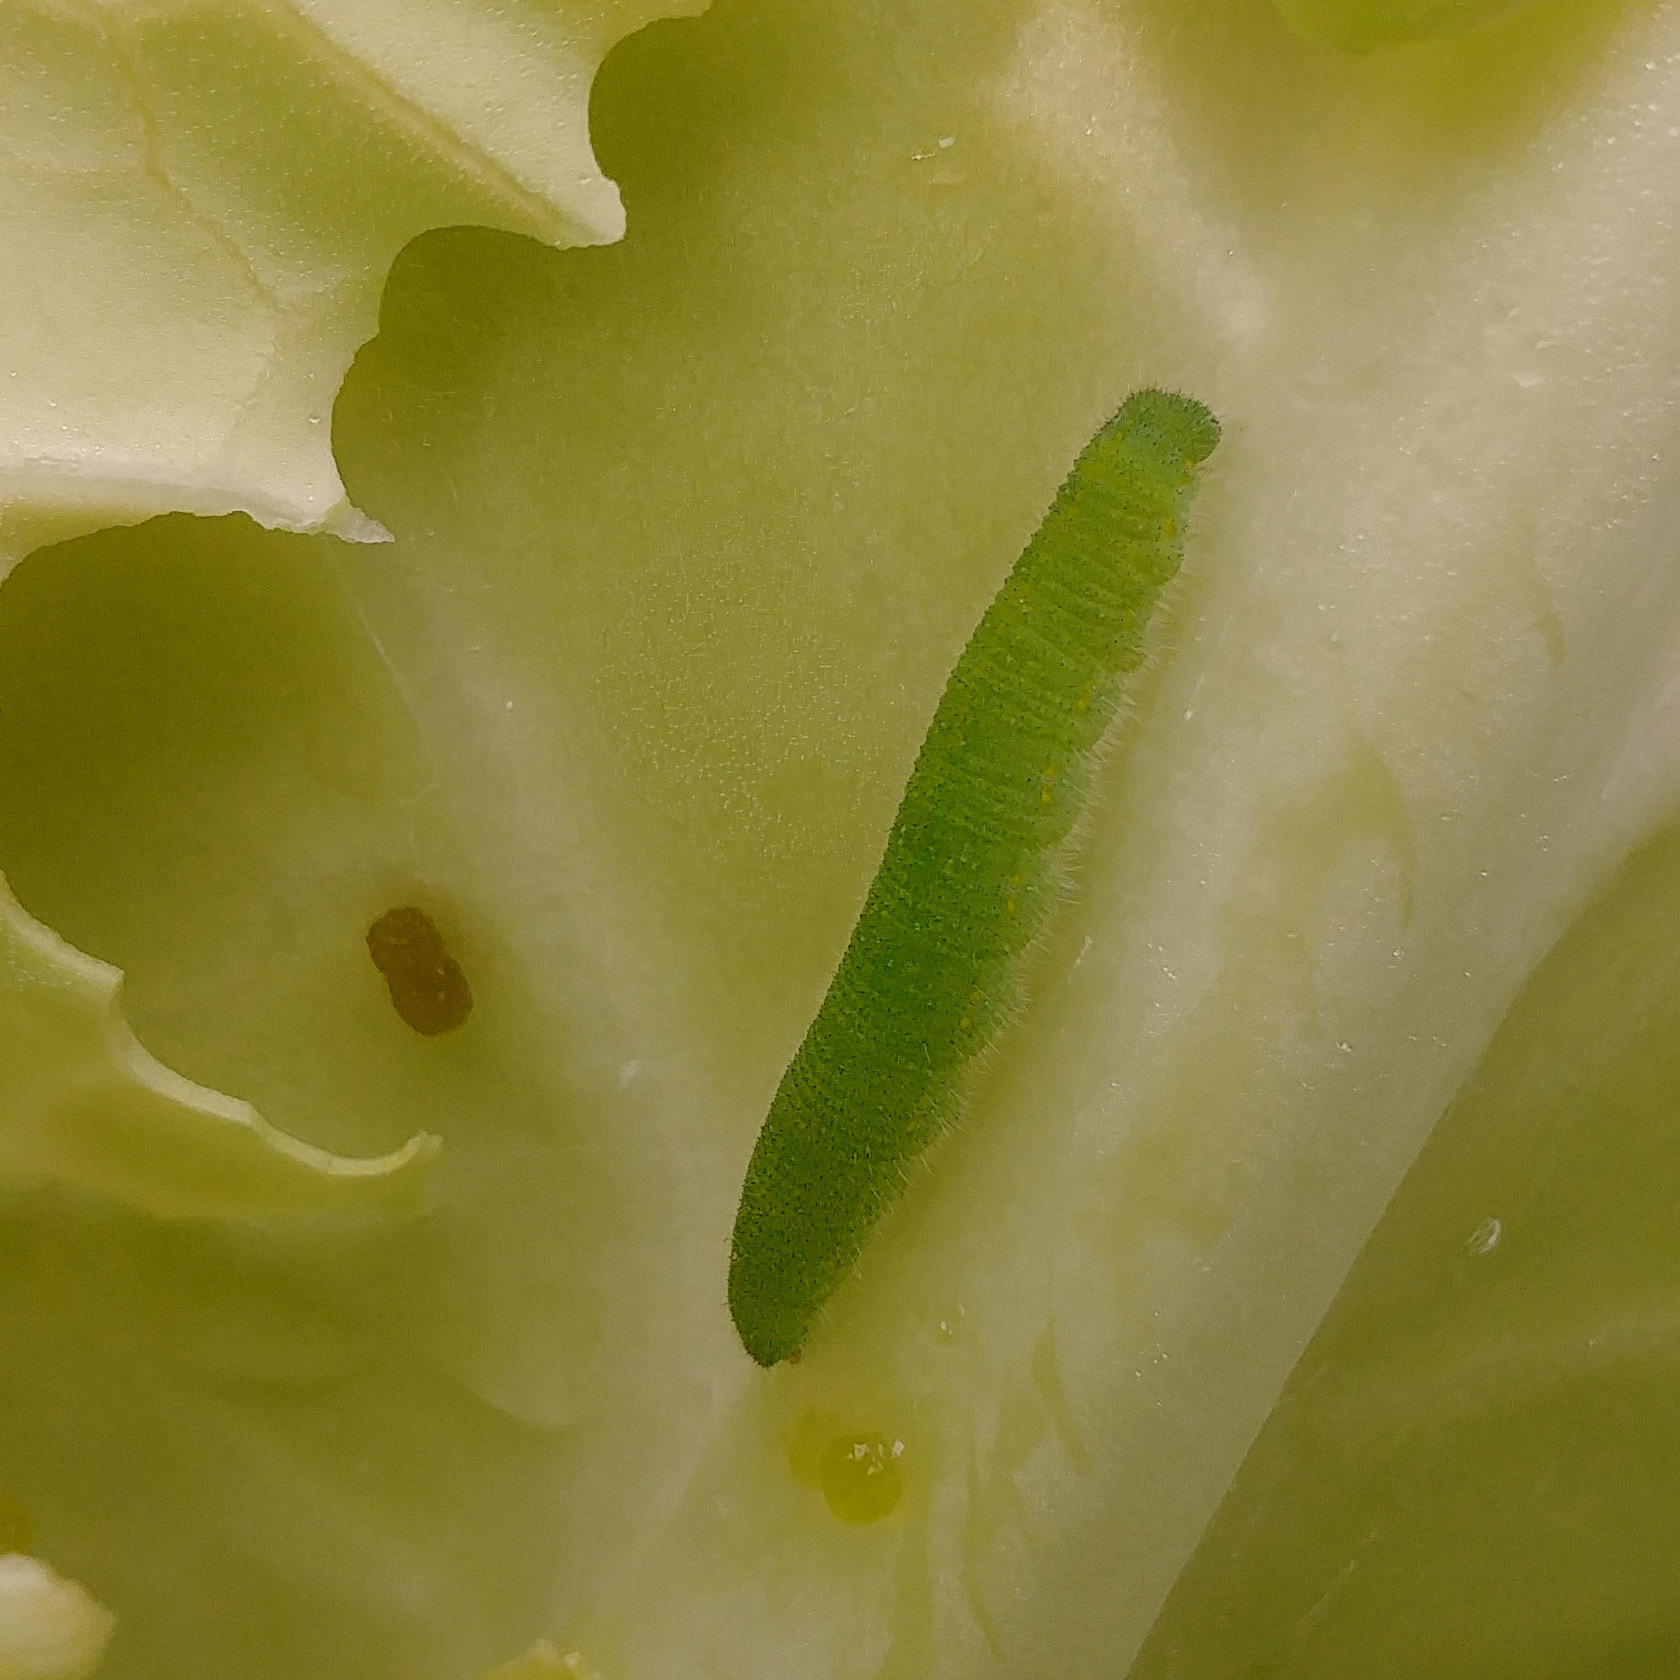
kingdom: Animalia
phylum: Arthropoda
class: Insecta
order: Lepidoptera
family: Pieridae
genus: Pieris
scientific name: Pieris rapae
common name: Small white
